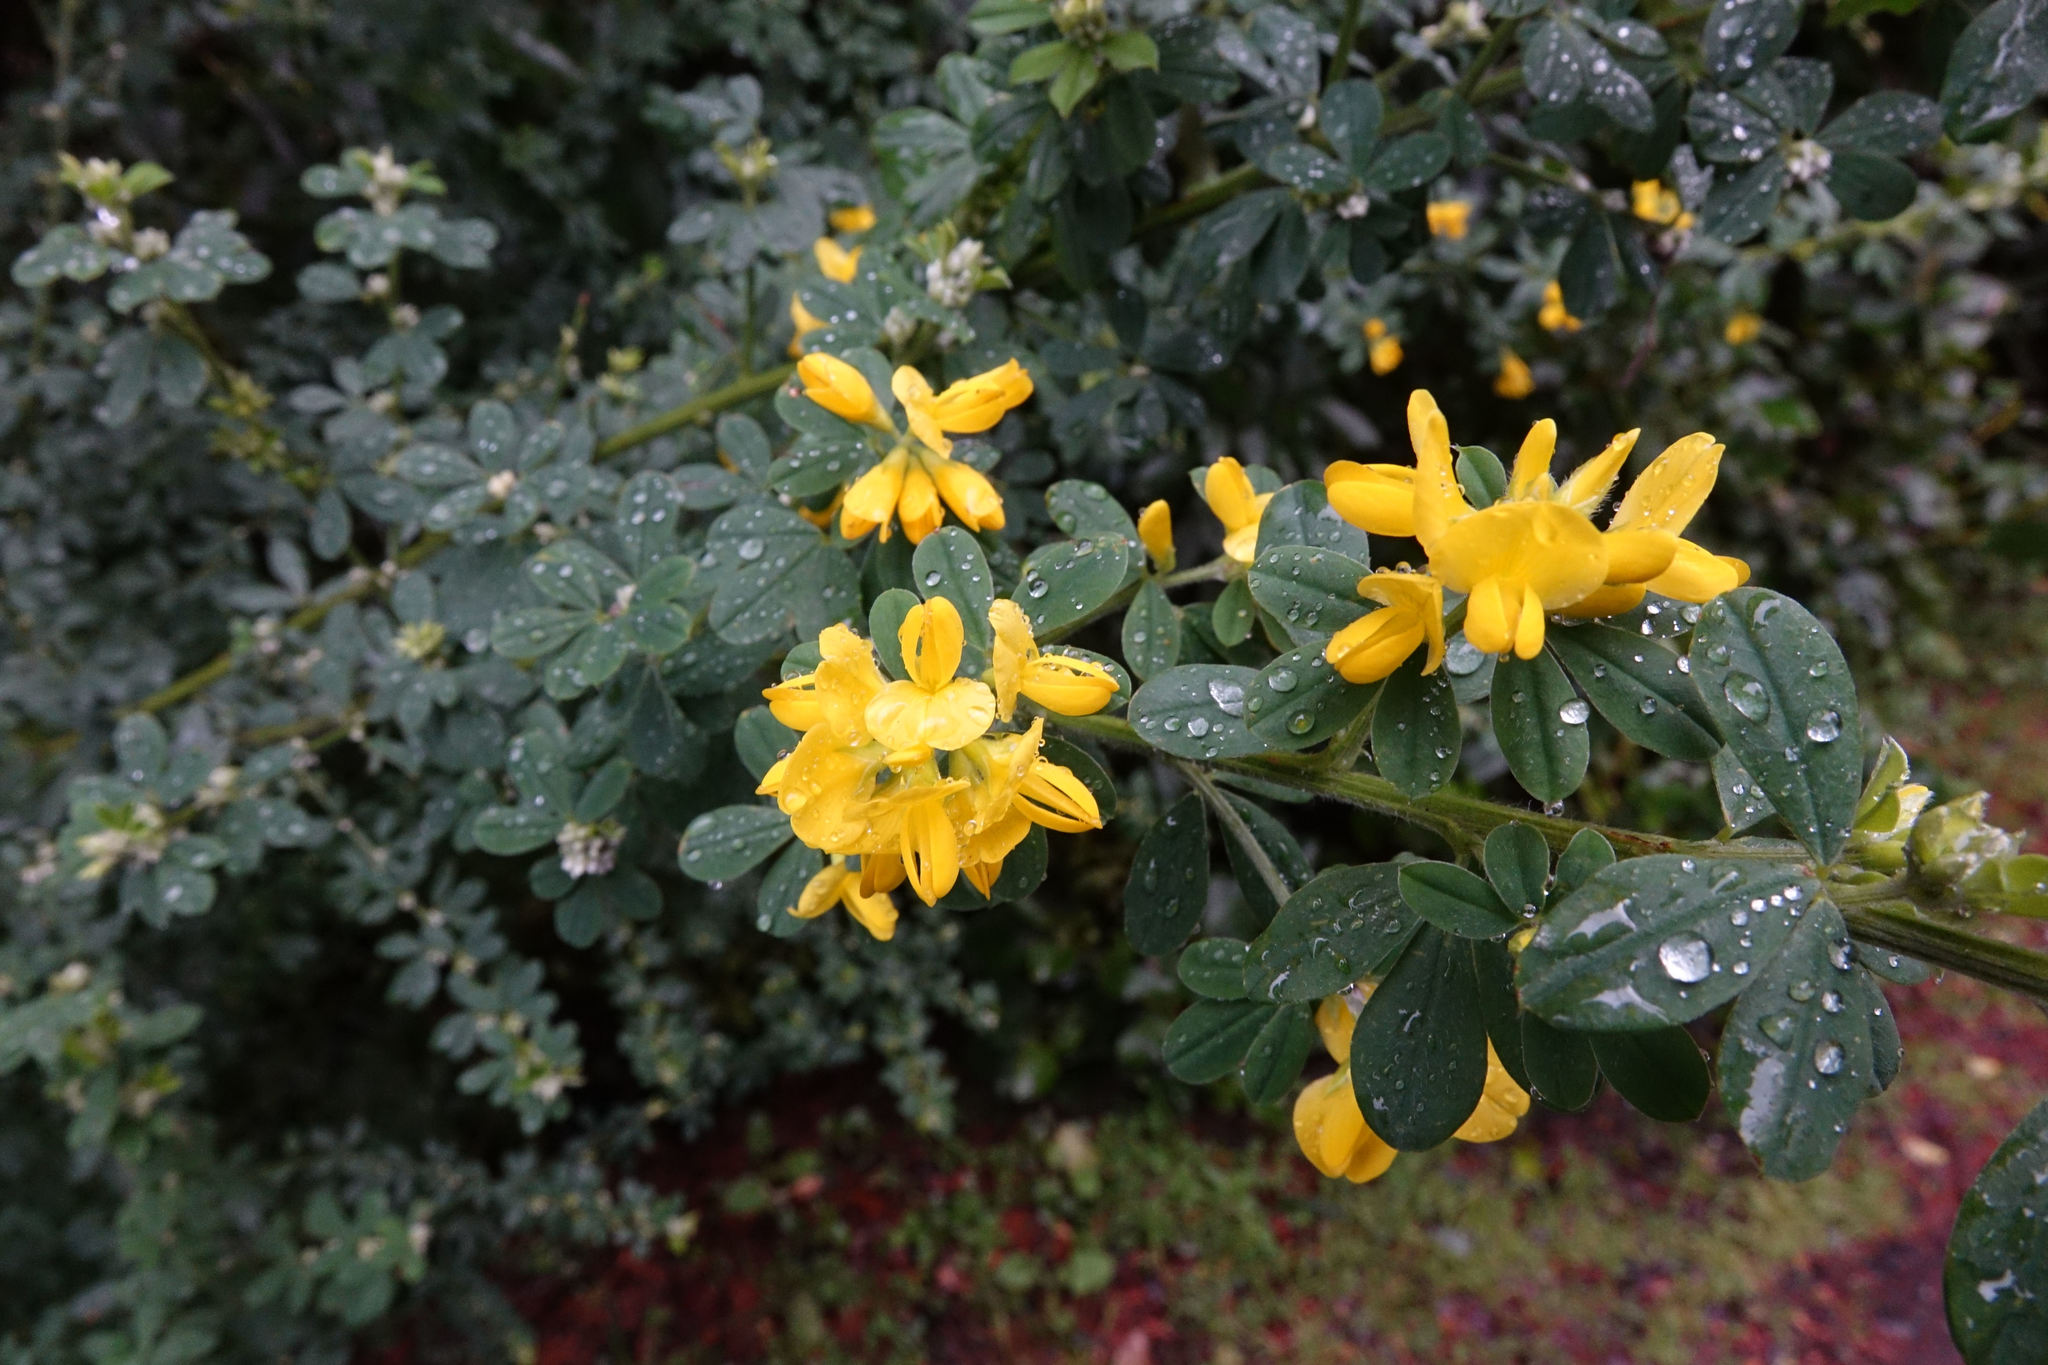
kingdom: Plantae
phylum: Tracheophyta
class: Magnoliopsida
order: Fabales
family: Fabaceae
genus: Genista
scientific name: Genista monspessulana
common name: Montpellier broom
